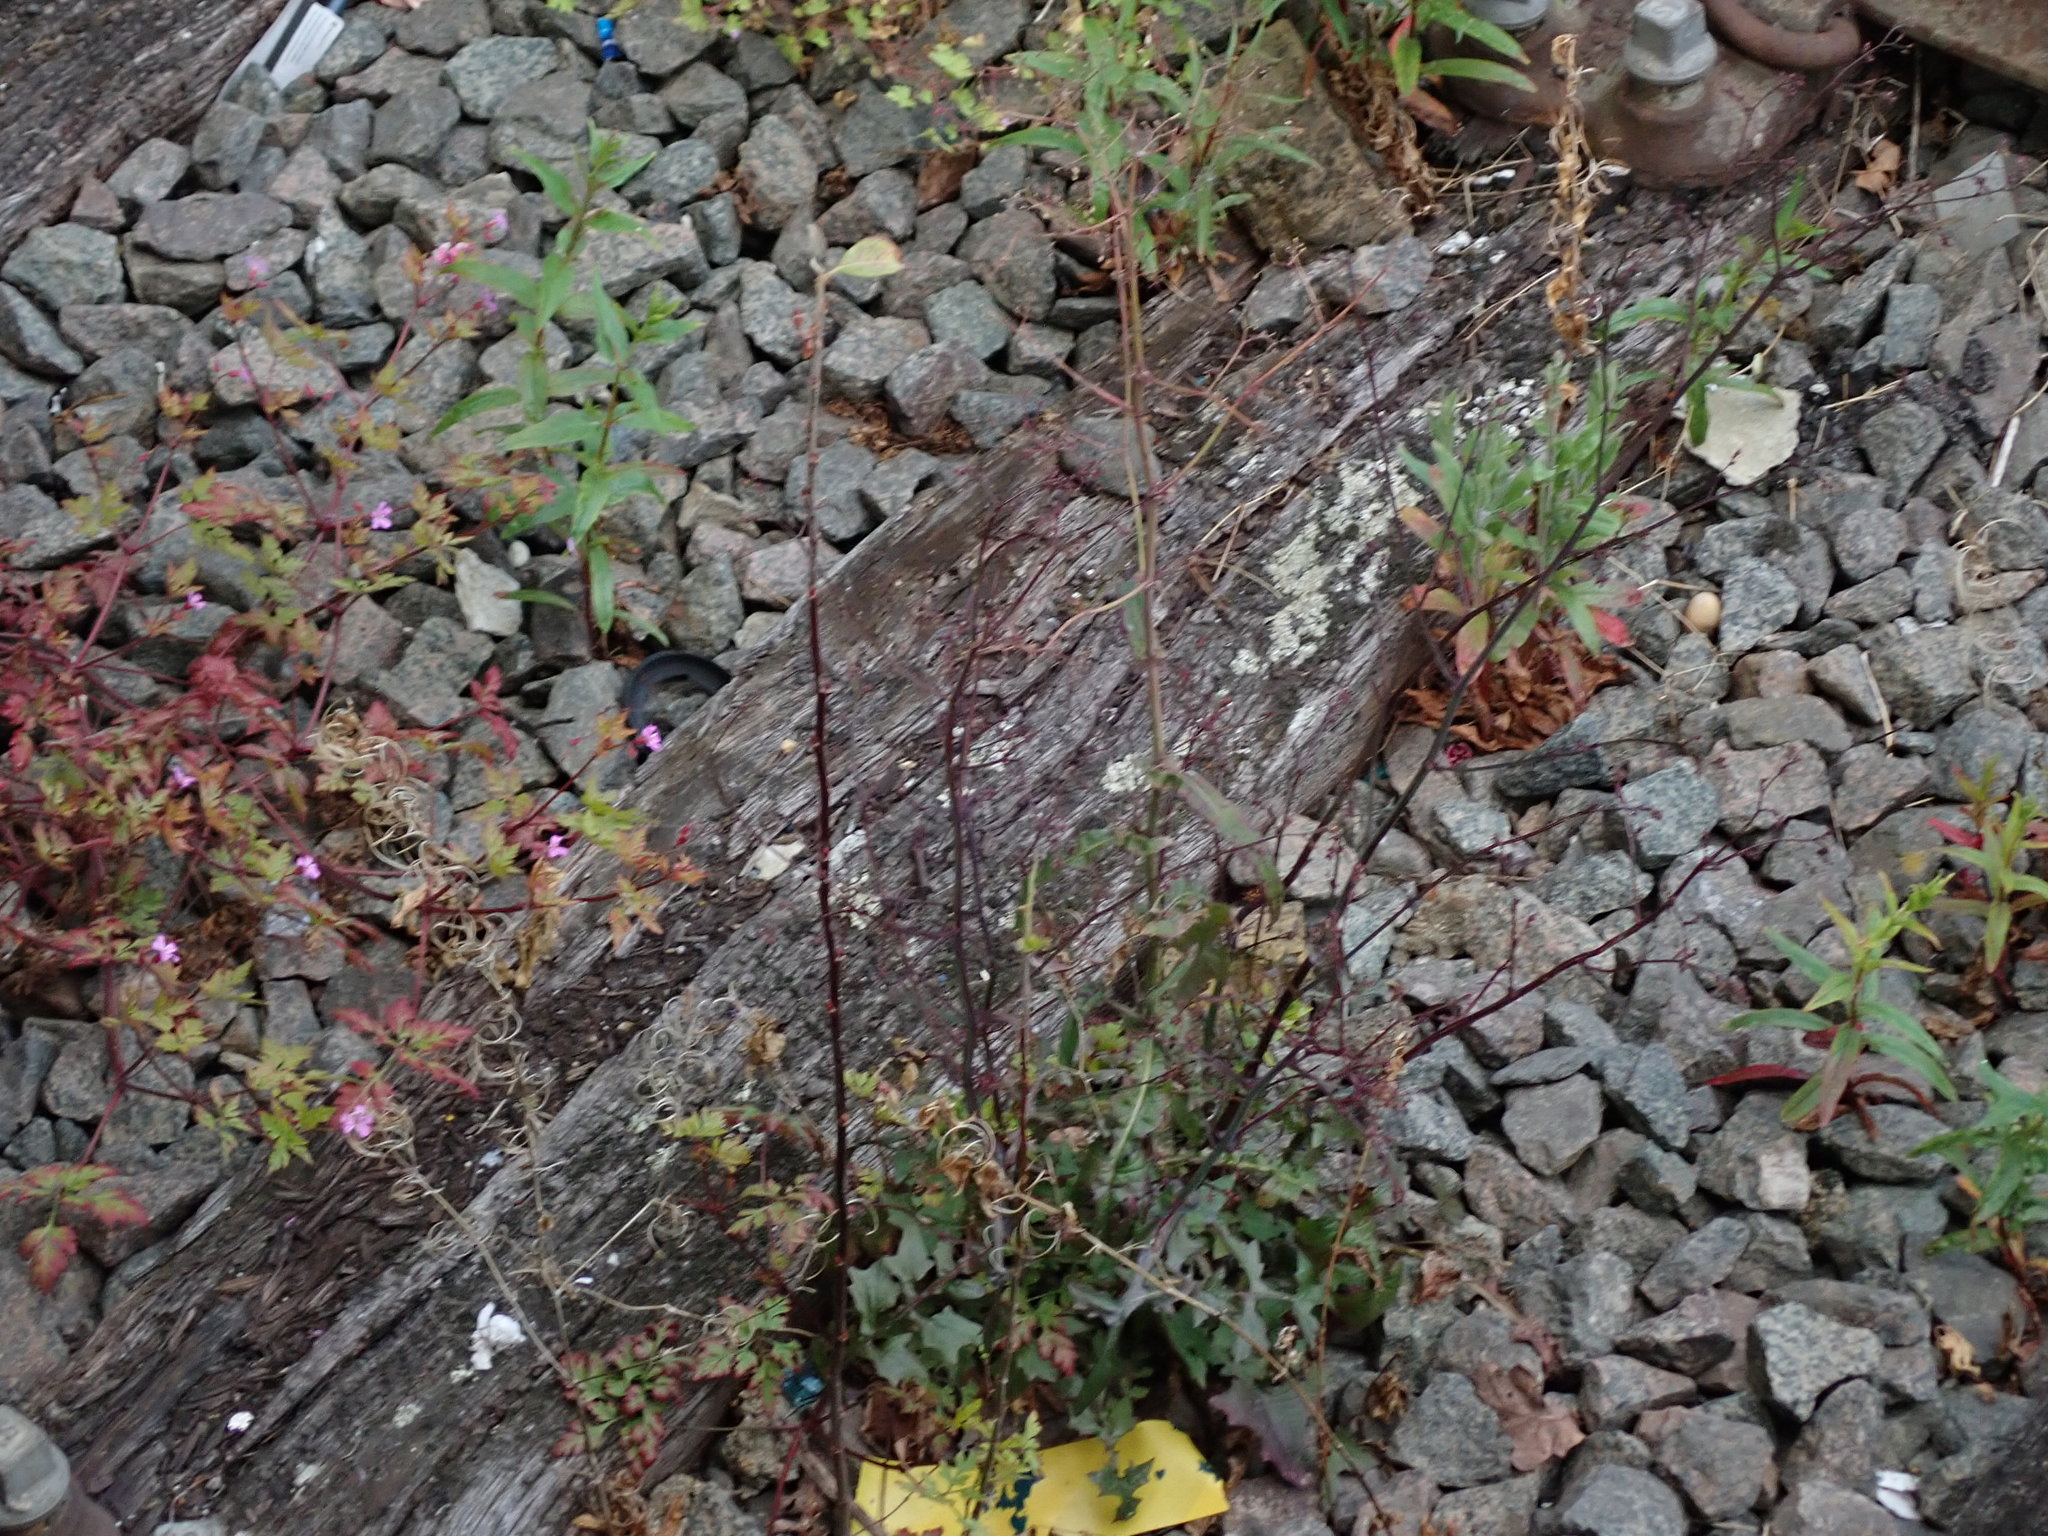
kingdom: Plantae
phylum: Tracheophyta
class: Magnoliopsida
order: Asterales
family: Asteraceae
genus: Mycelis
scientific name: Mycelis muralis
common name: Wall lettuce
